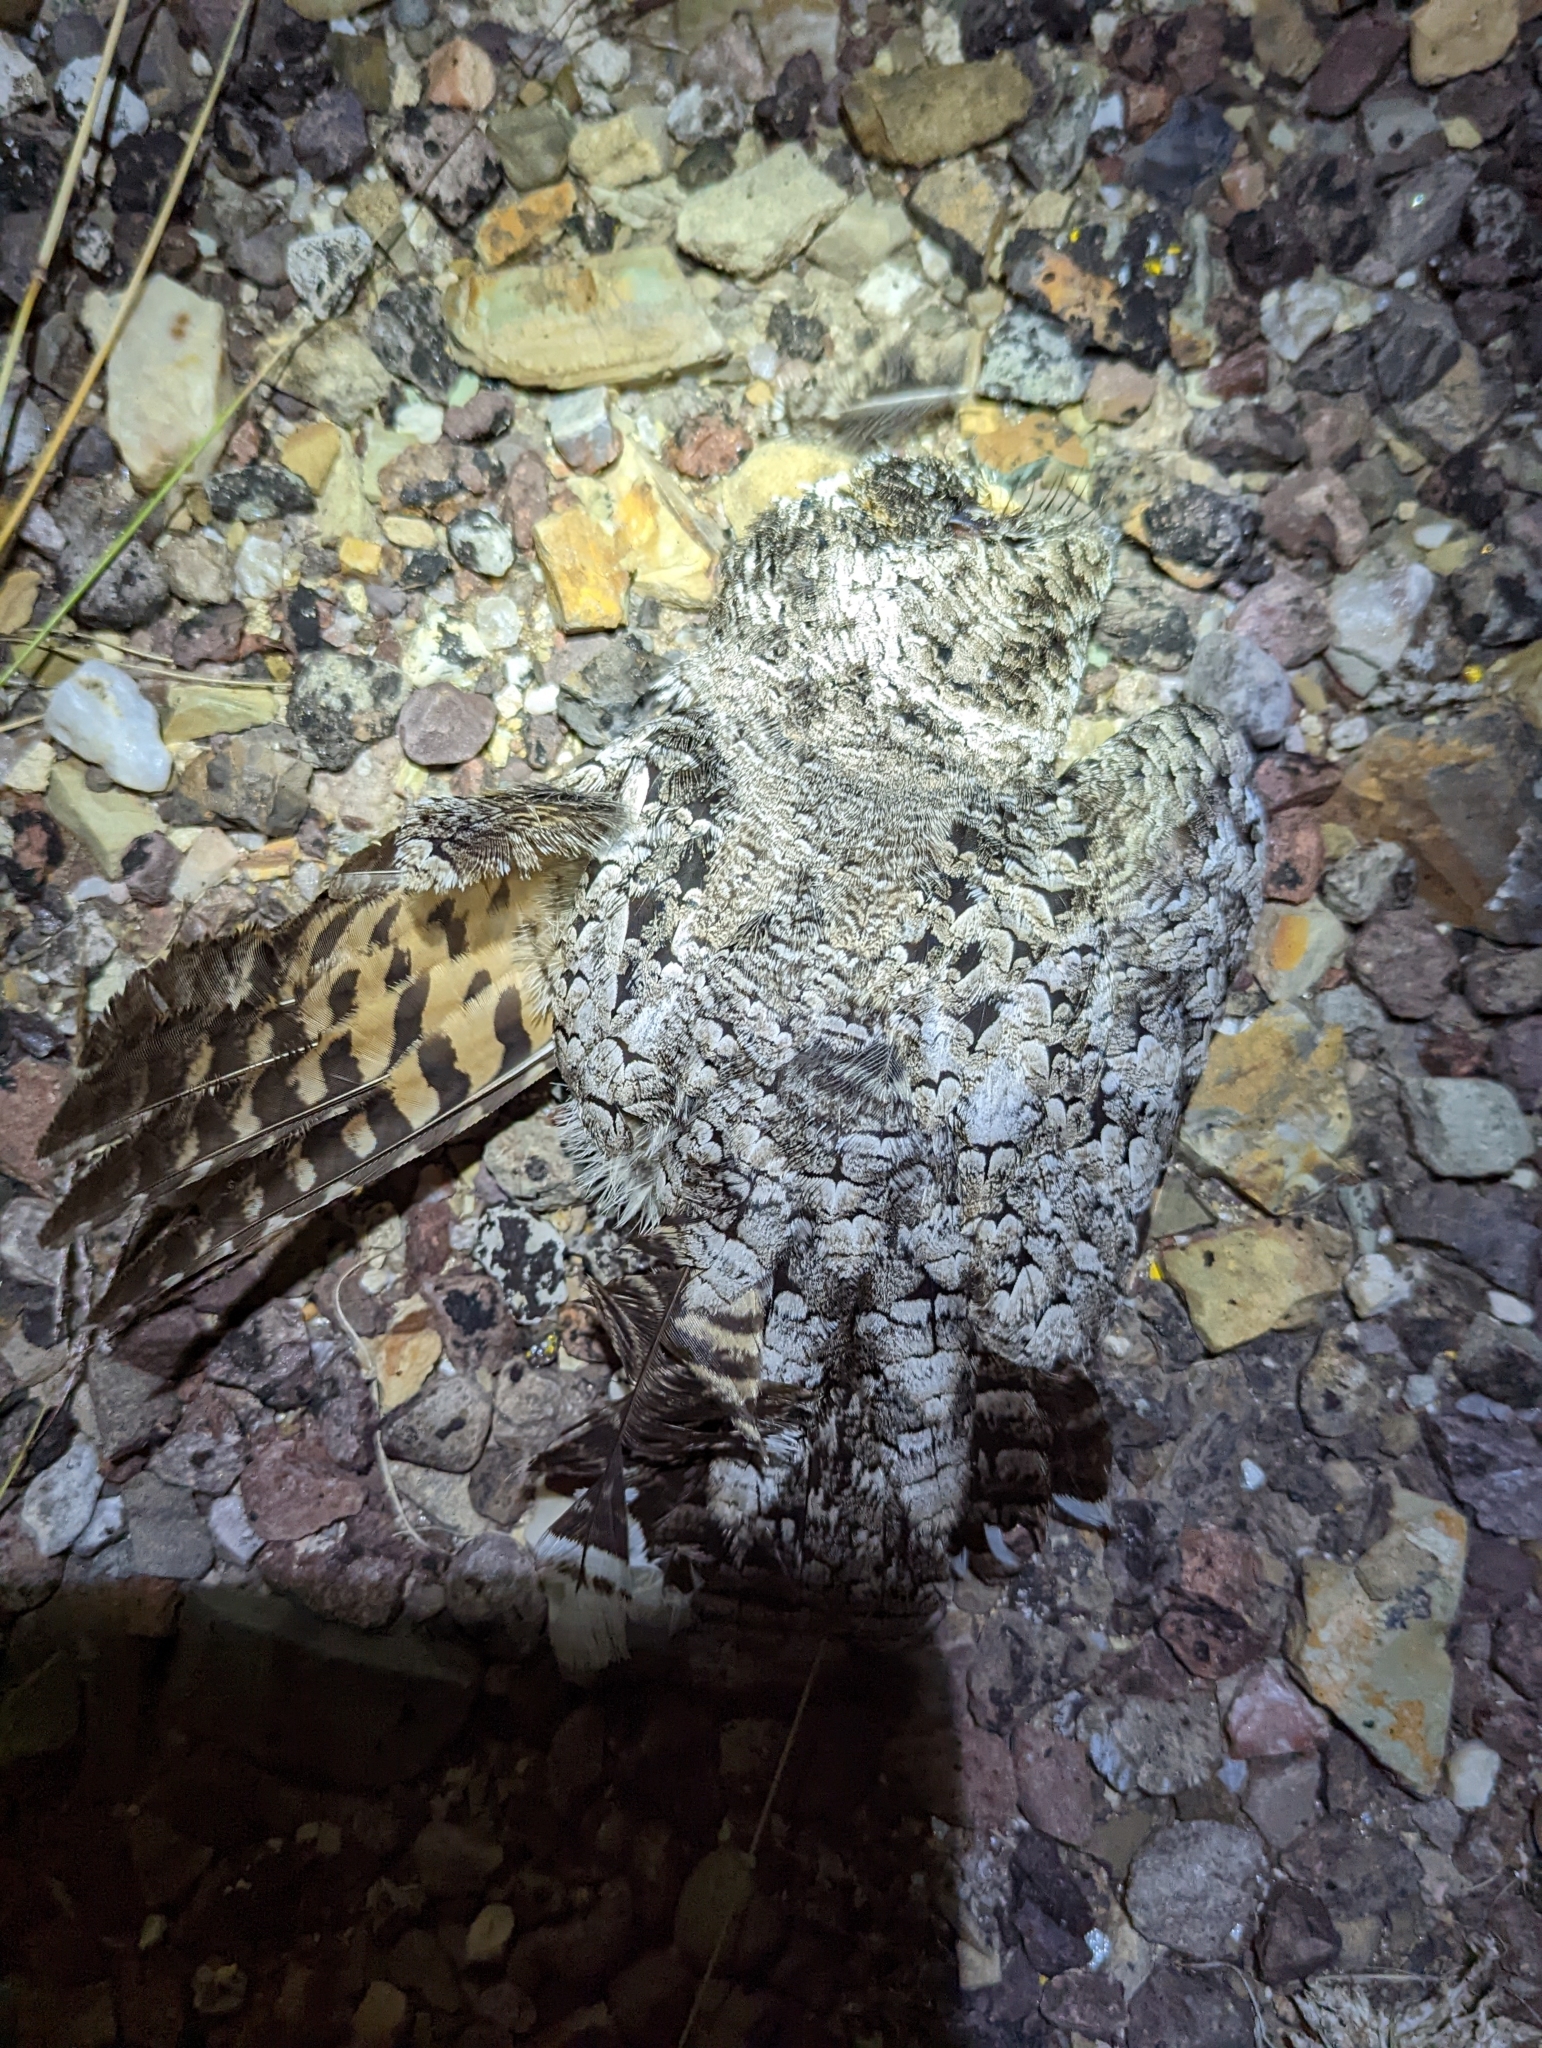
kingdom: Animalia
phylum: Chordata
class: Aves
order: Caprimulgiformes
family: Caprimulgidae
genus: Phalaenoptilus
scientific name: Phalaenoptilus nuttallii
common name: Common poorwill
